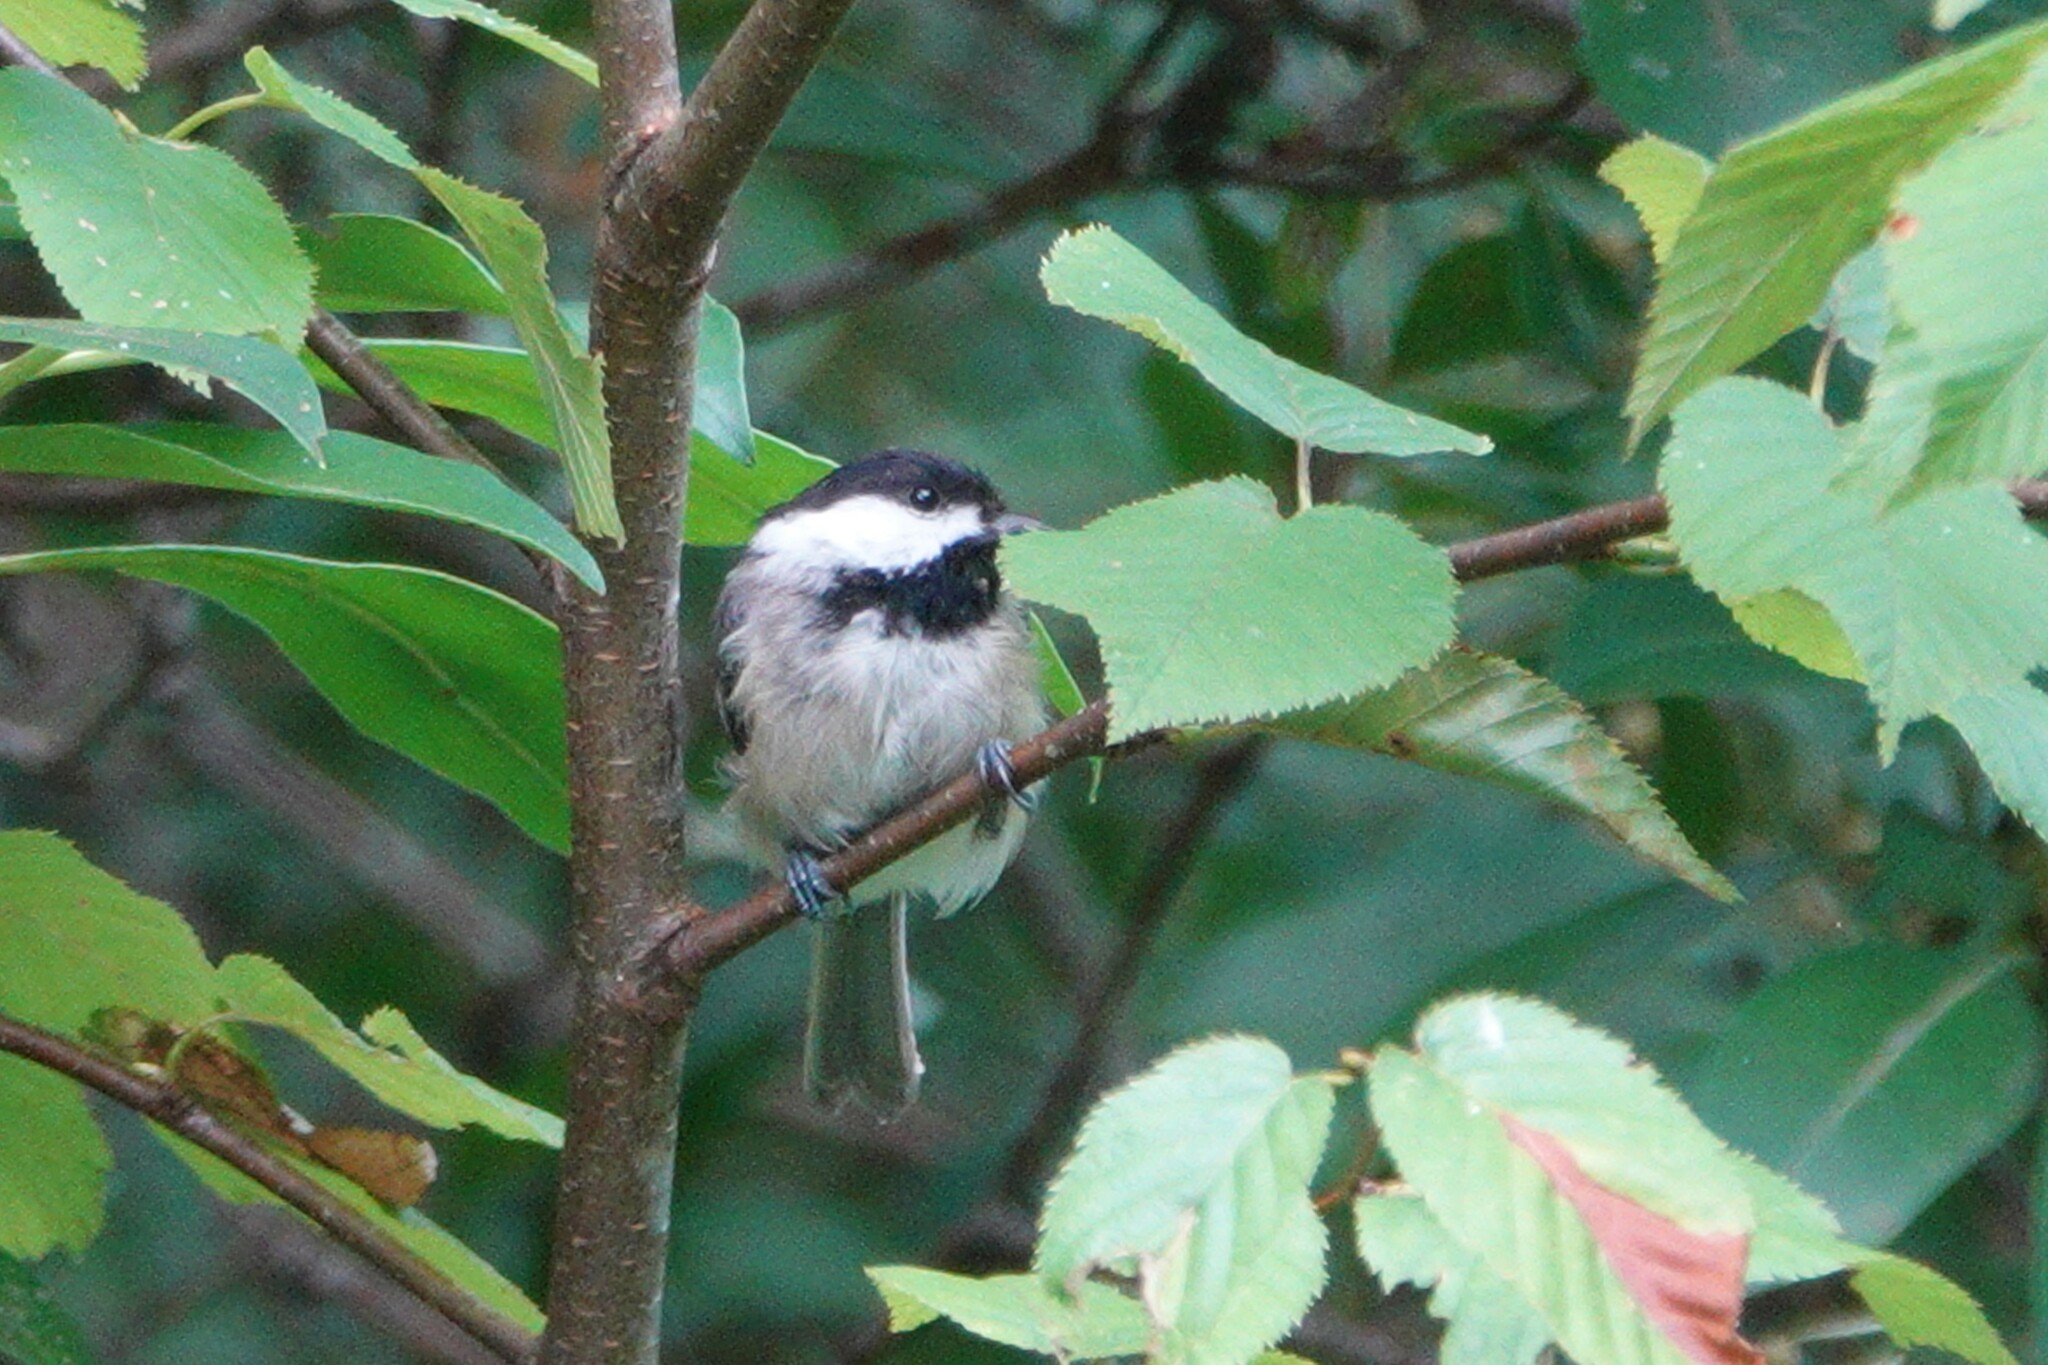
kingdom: Animalia
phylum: Chordata
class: Aves
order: Passeriformes
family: Paridae
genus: Poecile
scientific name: Poecile carolinensis
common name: Carolina chickadee
